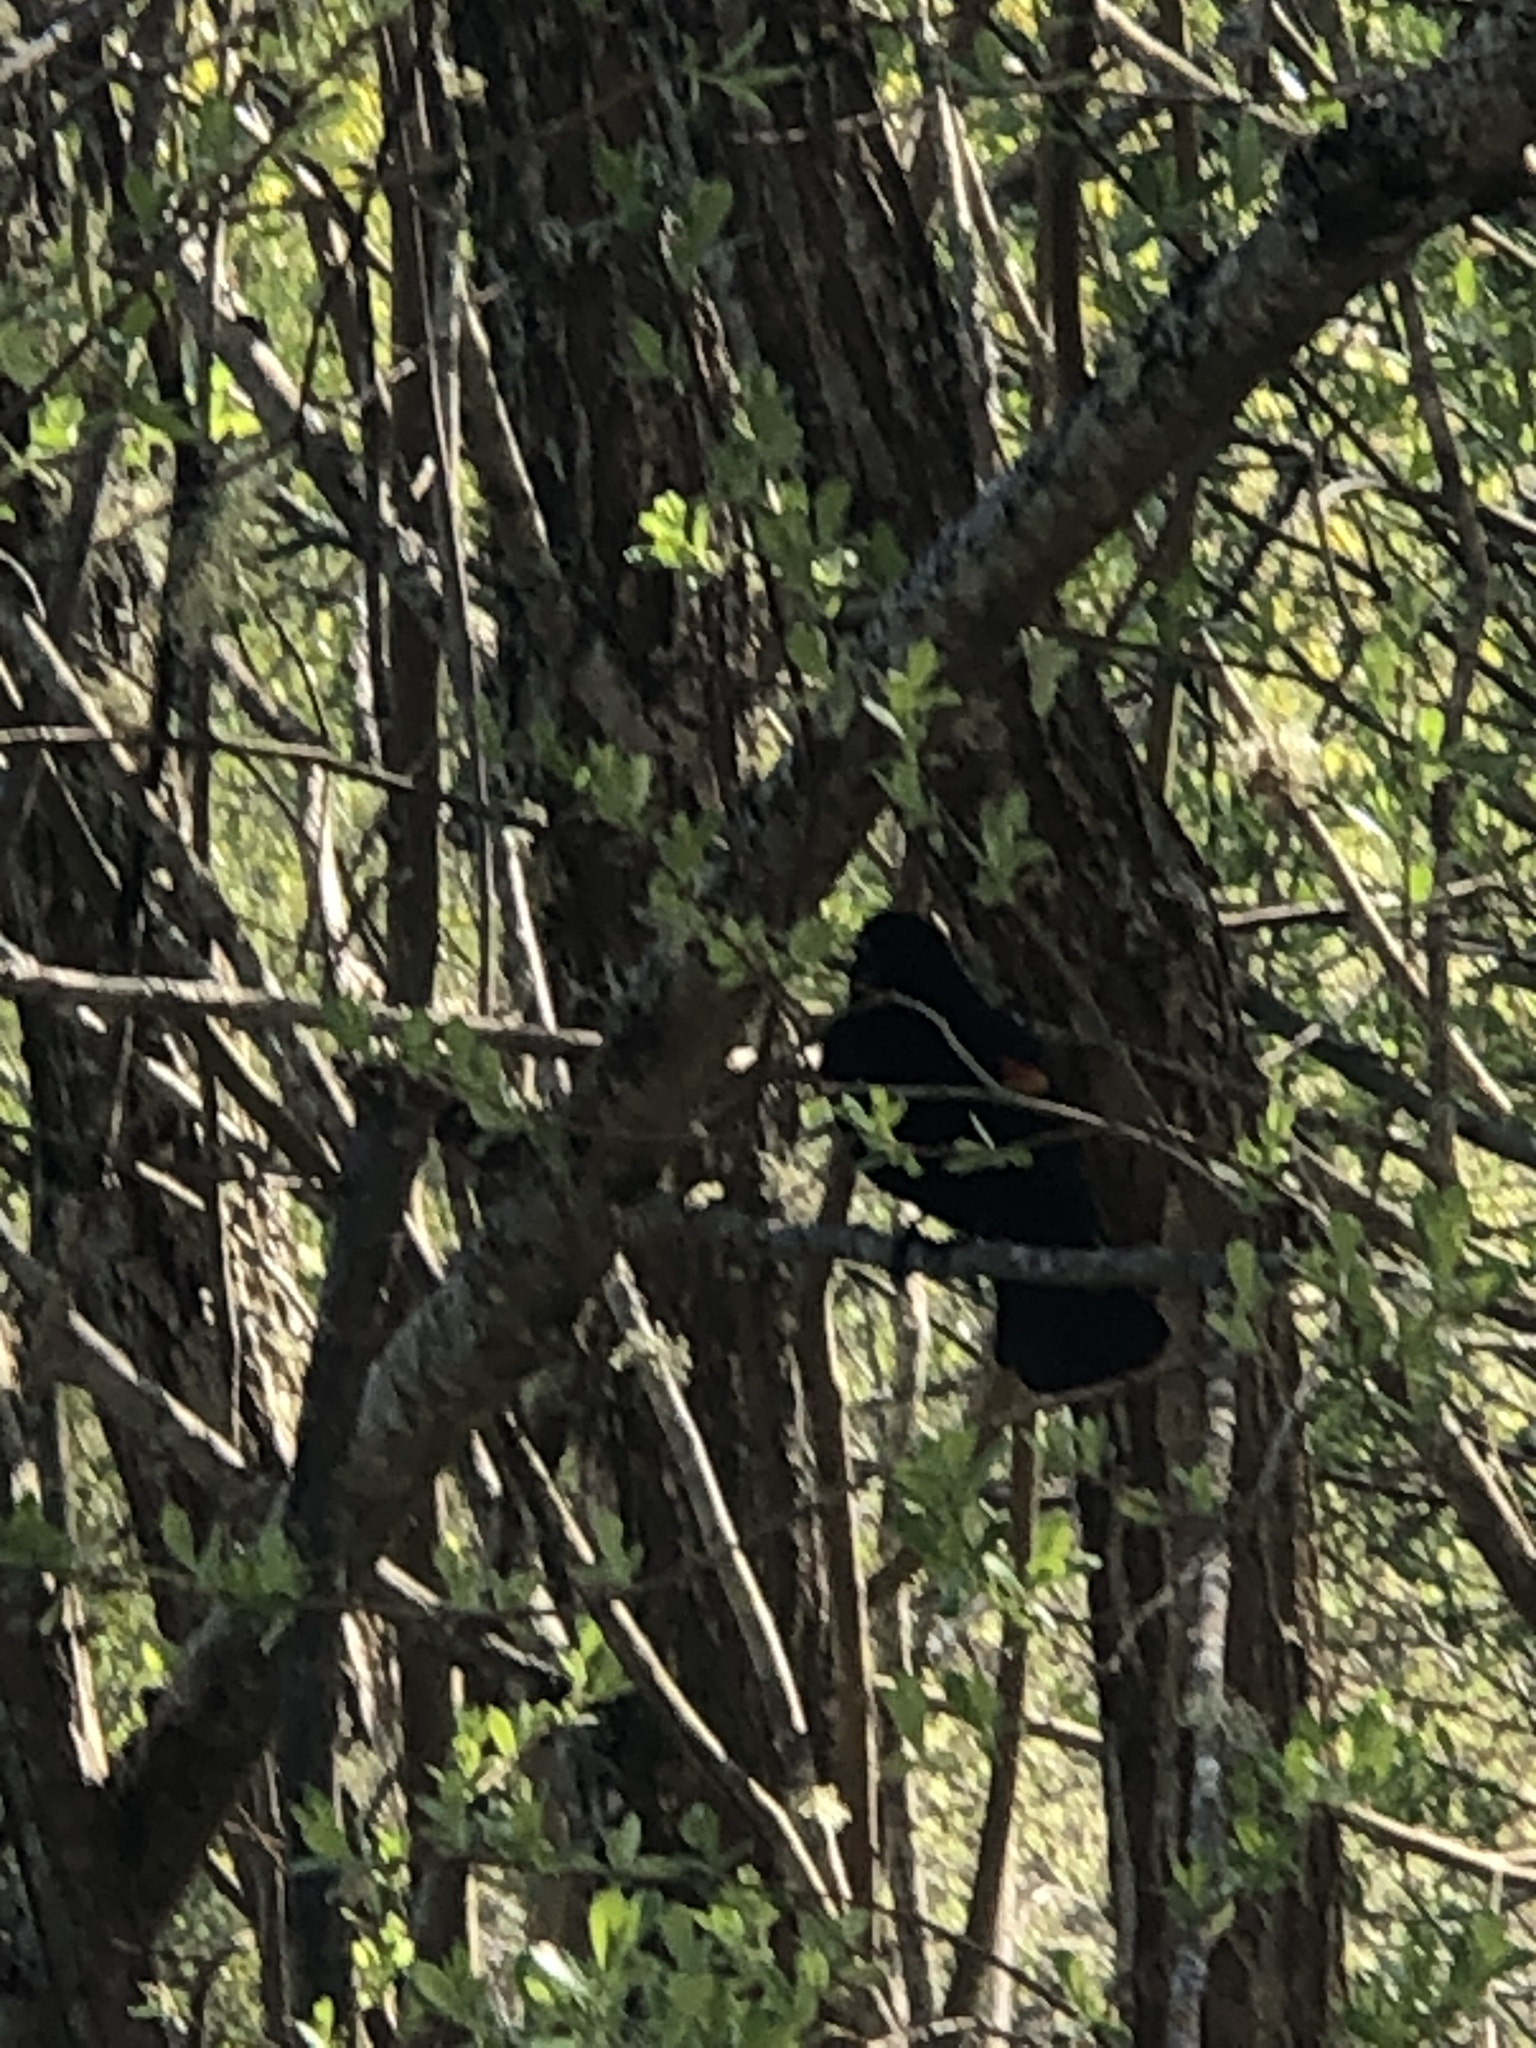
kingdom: Animalia
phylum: Chordata
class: Aves
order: Passeriformes
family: Icteridae
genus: Agelaius
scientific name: Agelaius phoeniceus
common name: Red-winged blackbird
